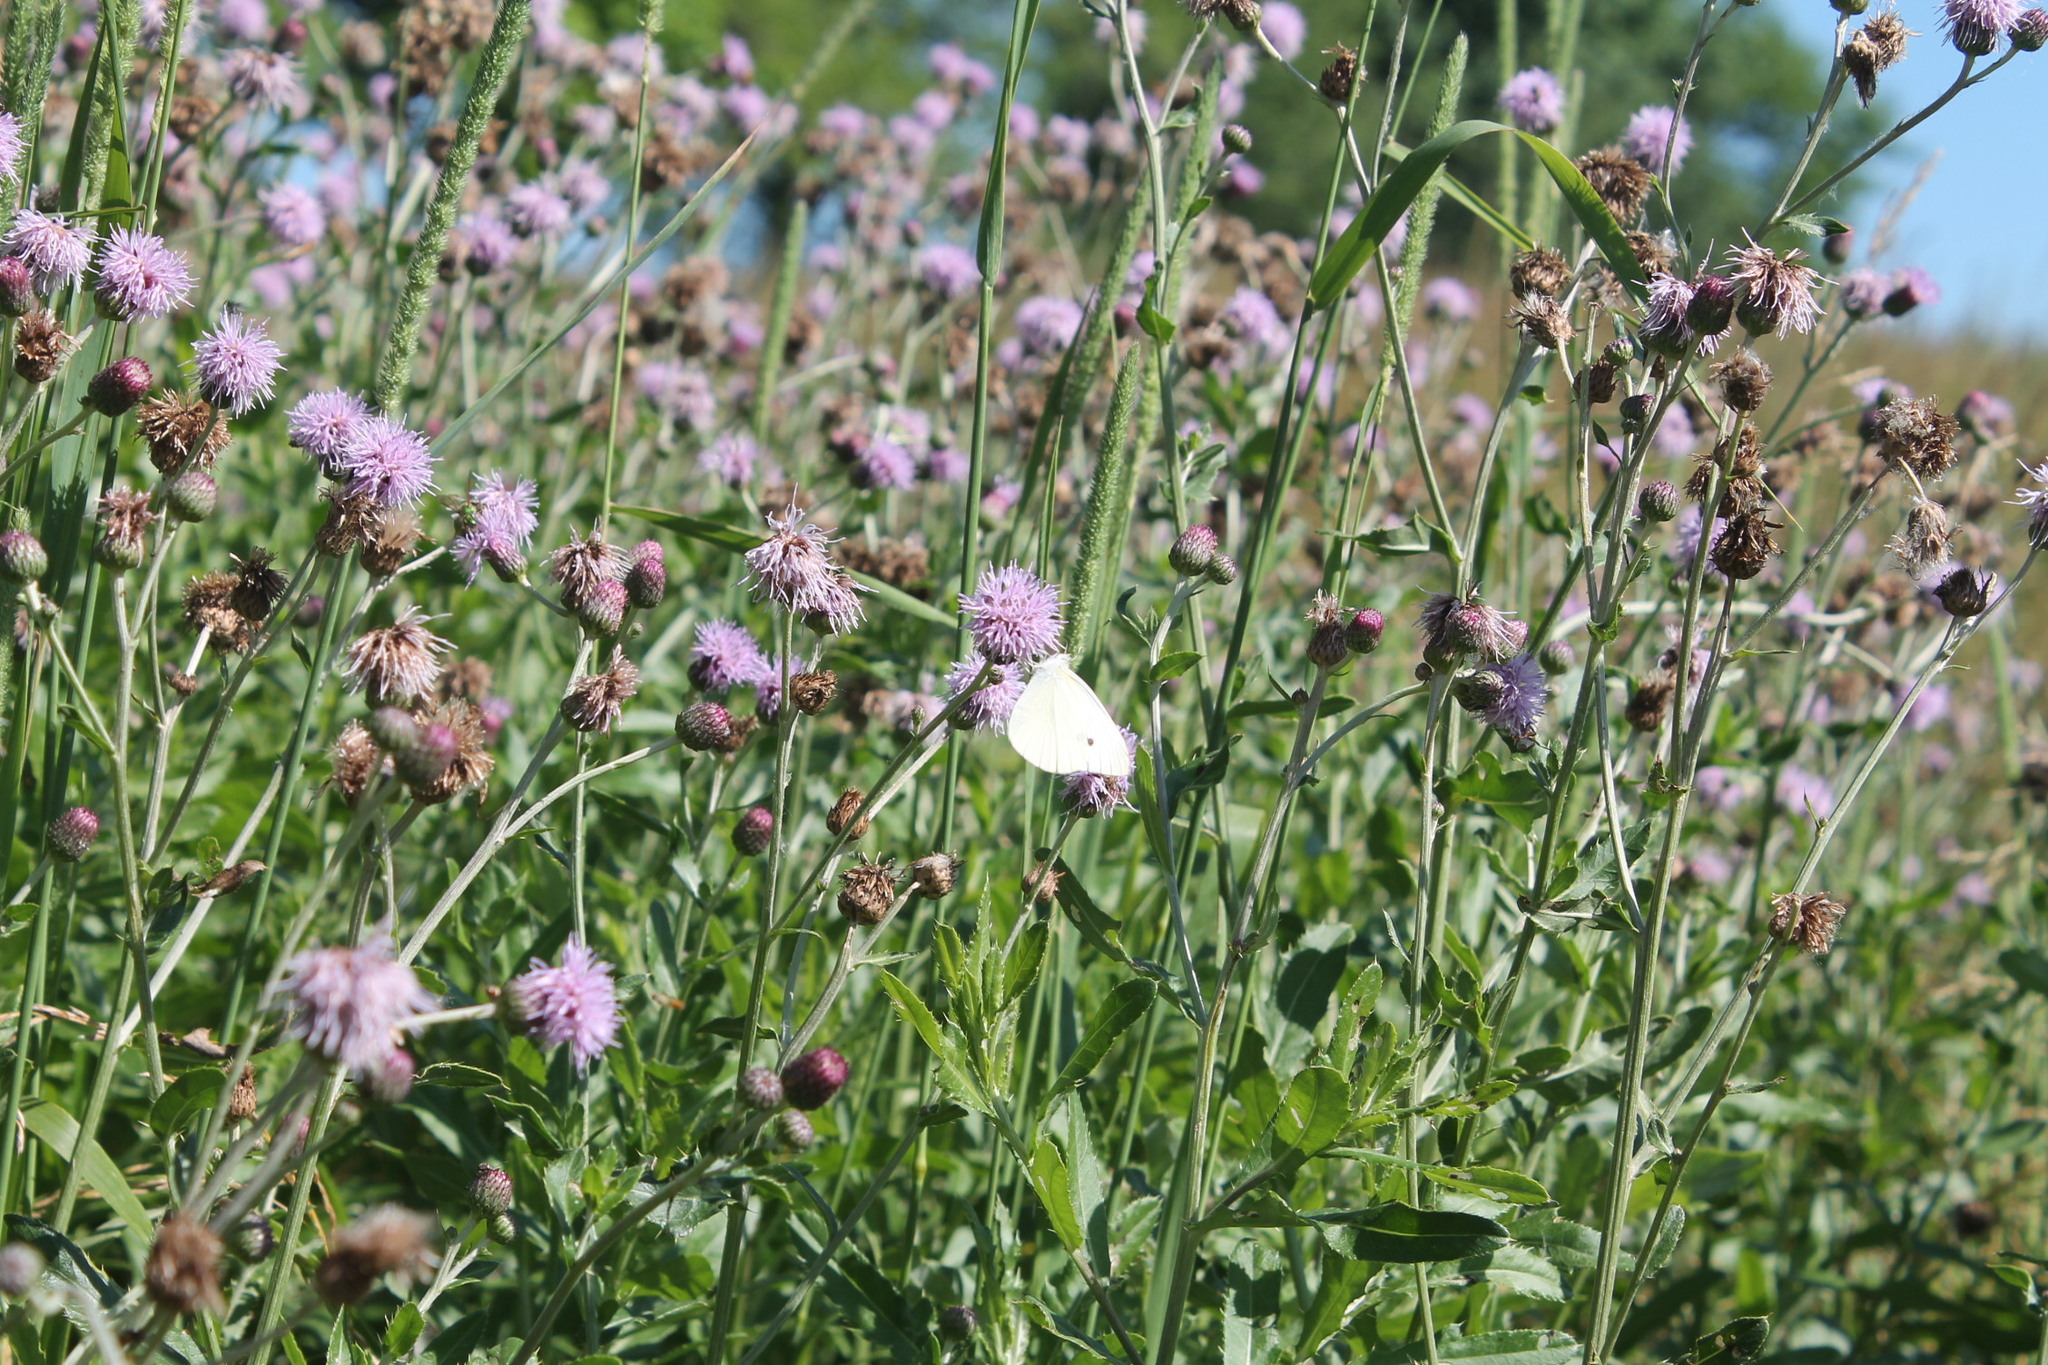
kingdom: Animalia
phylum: Arthropoda
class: Insecta
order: Lepidoptera
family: Pieridae
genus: Pieris
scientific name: Pieris rapae
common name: Small white
